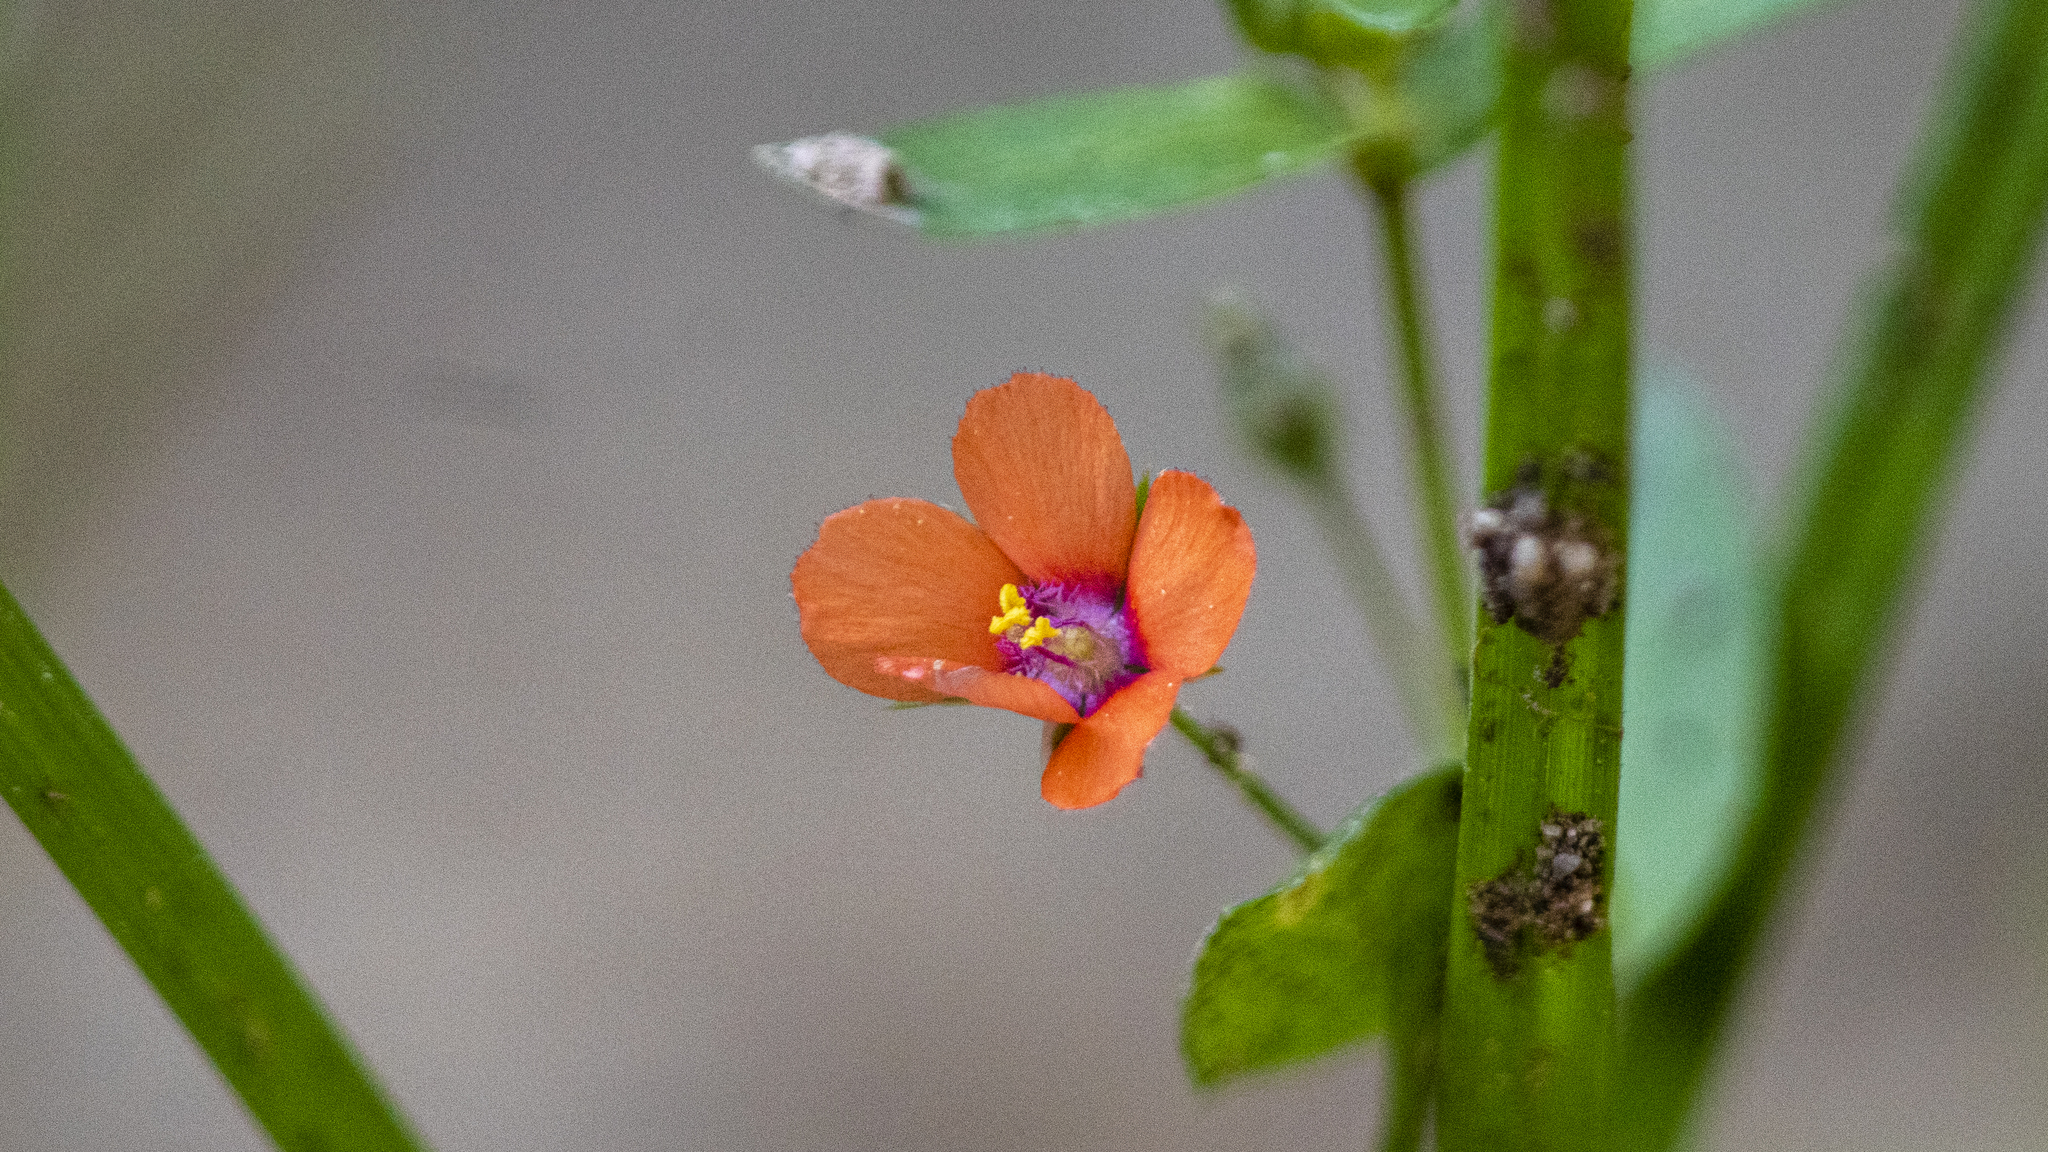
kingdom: Plantae
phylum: Tracheophyta
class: Magnoliopsida
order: Ericales
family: Primulaceae
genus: Lysimachia
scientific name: Lysimachia arvensis
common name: Scarlet pimpernel
